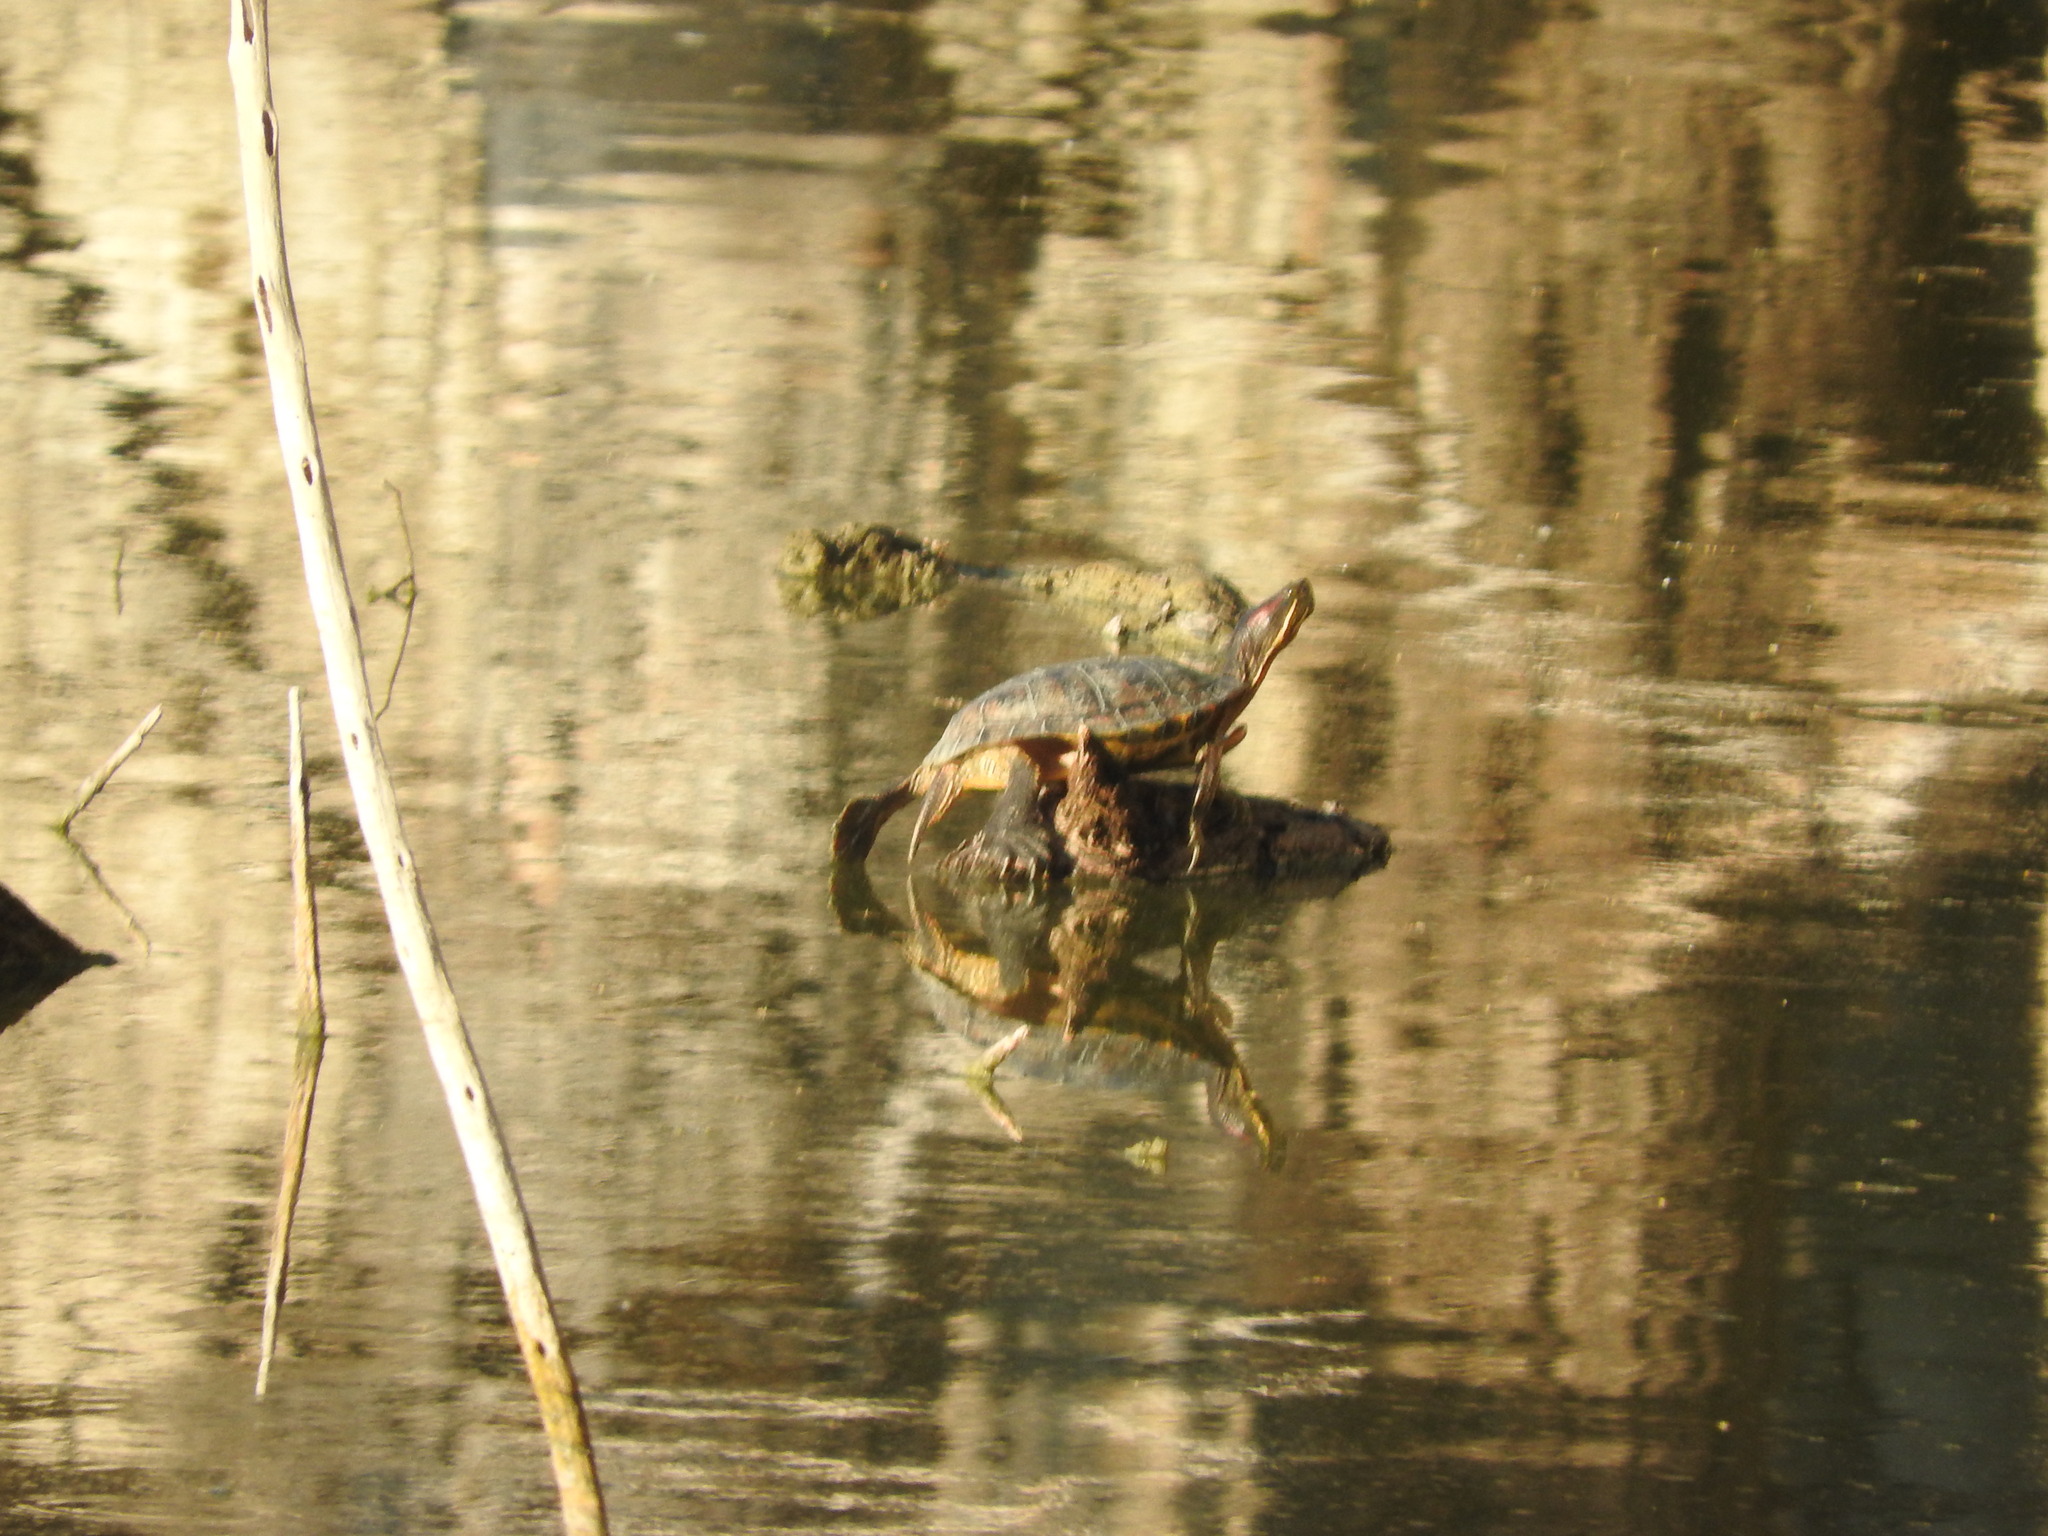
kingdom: Animalia
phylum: Chordata
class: Testudines
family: Emydidae
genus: Trachemys
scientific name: Trachemys scripta
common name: Slider
